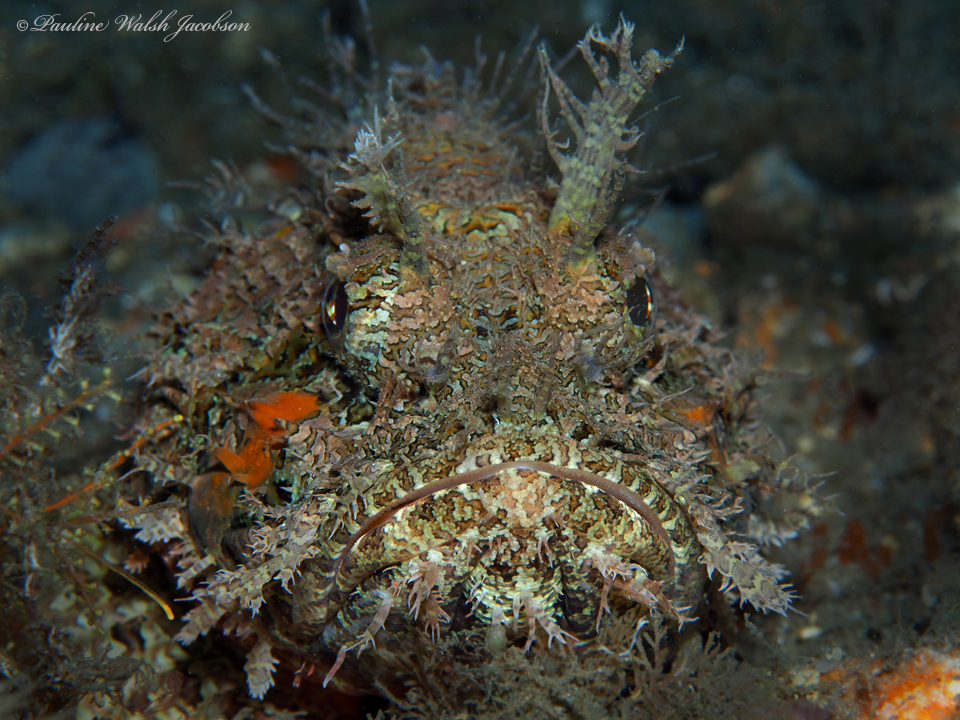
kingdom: Animalia
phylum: Chordata
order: Scorpaeniformes
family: Scorpaenidae
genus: Scorpaena
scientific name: Scorpaena plumieri
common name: Spotted scorpionfish
